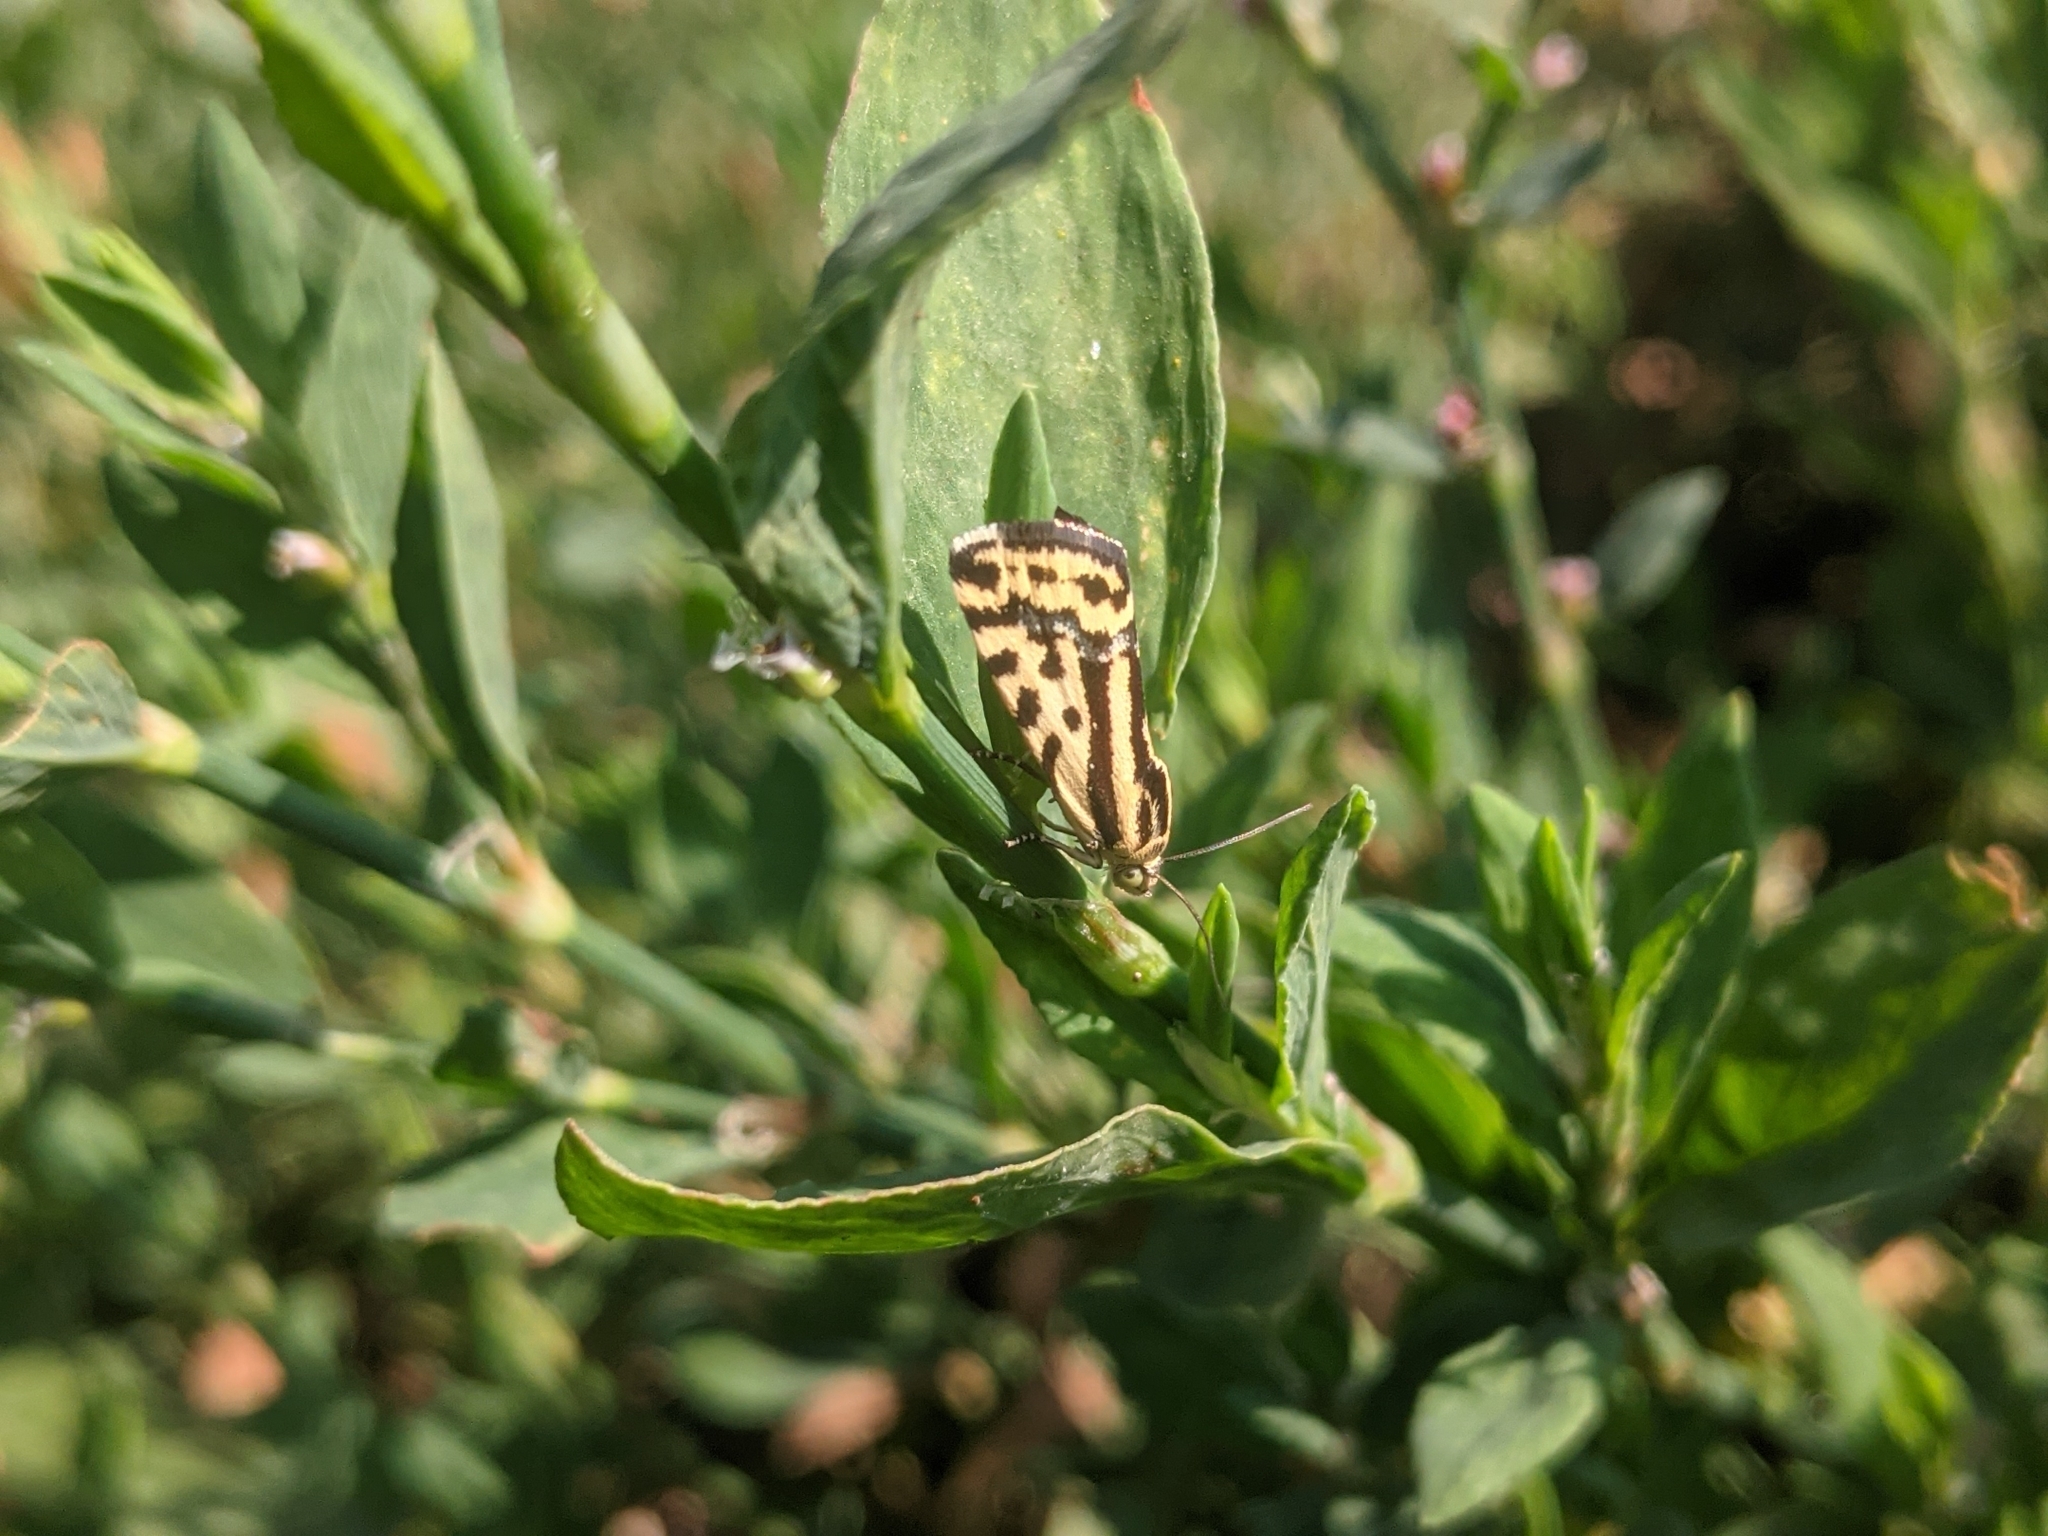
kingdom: Animalia
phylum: Arthropoda
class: Insecta
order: Lepidoptera
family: Noctuidae
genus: Acontia
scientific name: Acontia trabealis
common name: Spotted sulphur
